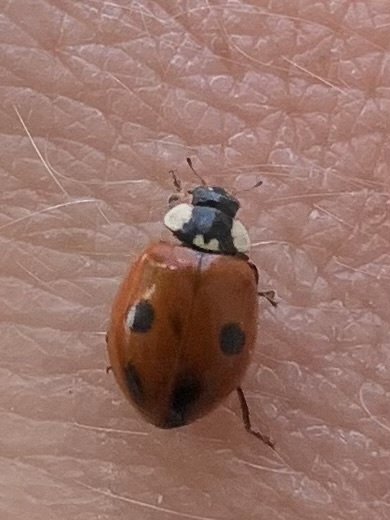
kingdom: Animalia
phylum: Arthropoda
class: Insecta
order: Coleoptera
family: Coccinellidae
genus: Adalia
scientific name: Adalia bipunctata
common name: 2-spot ladybird
